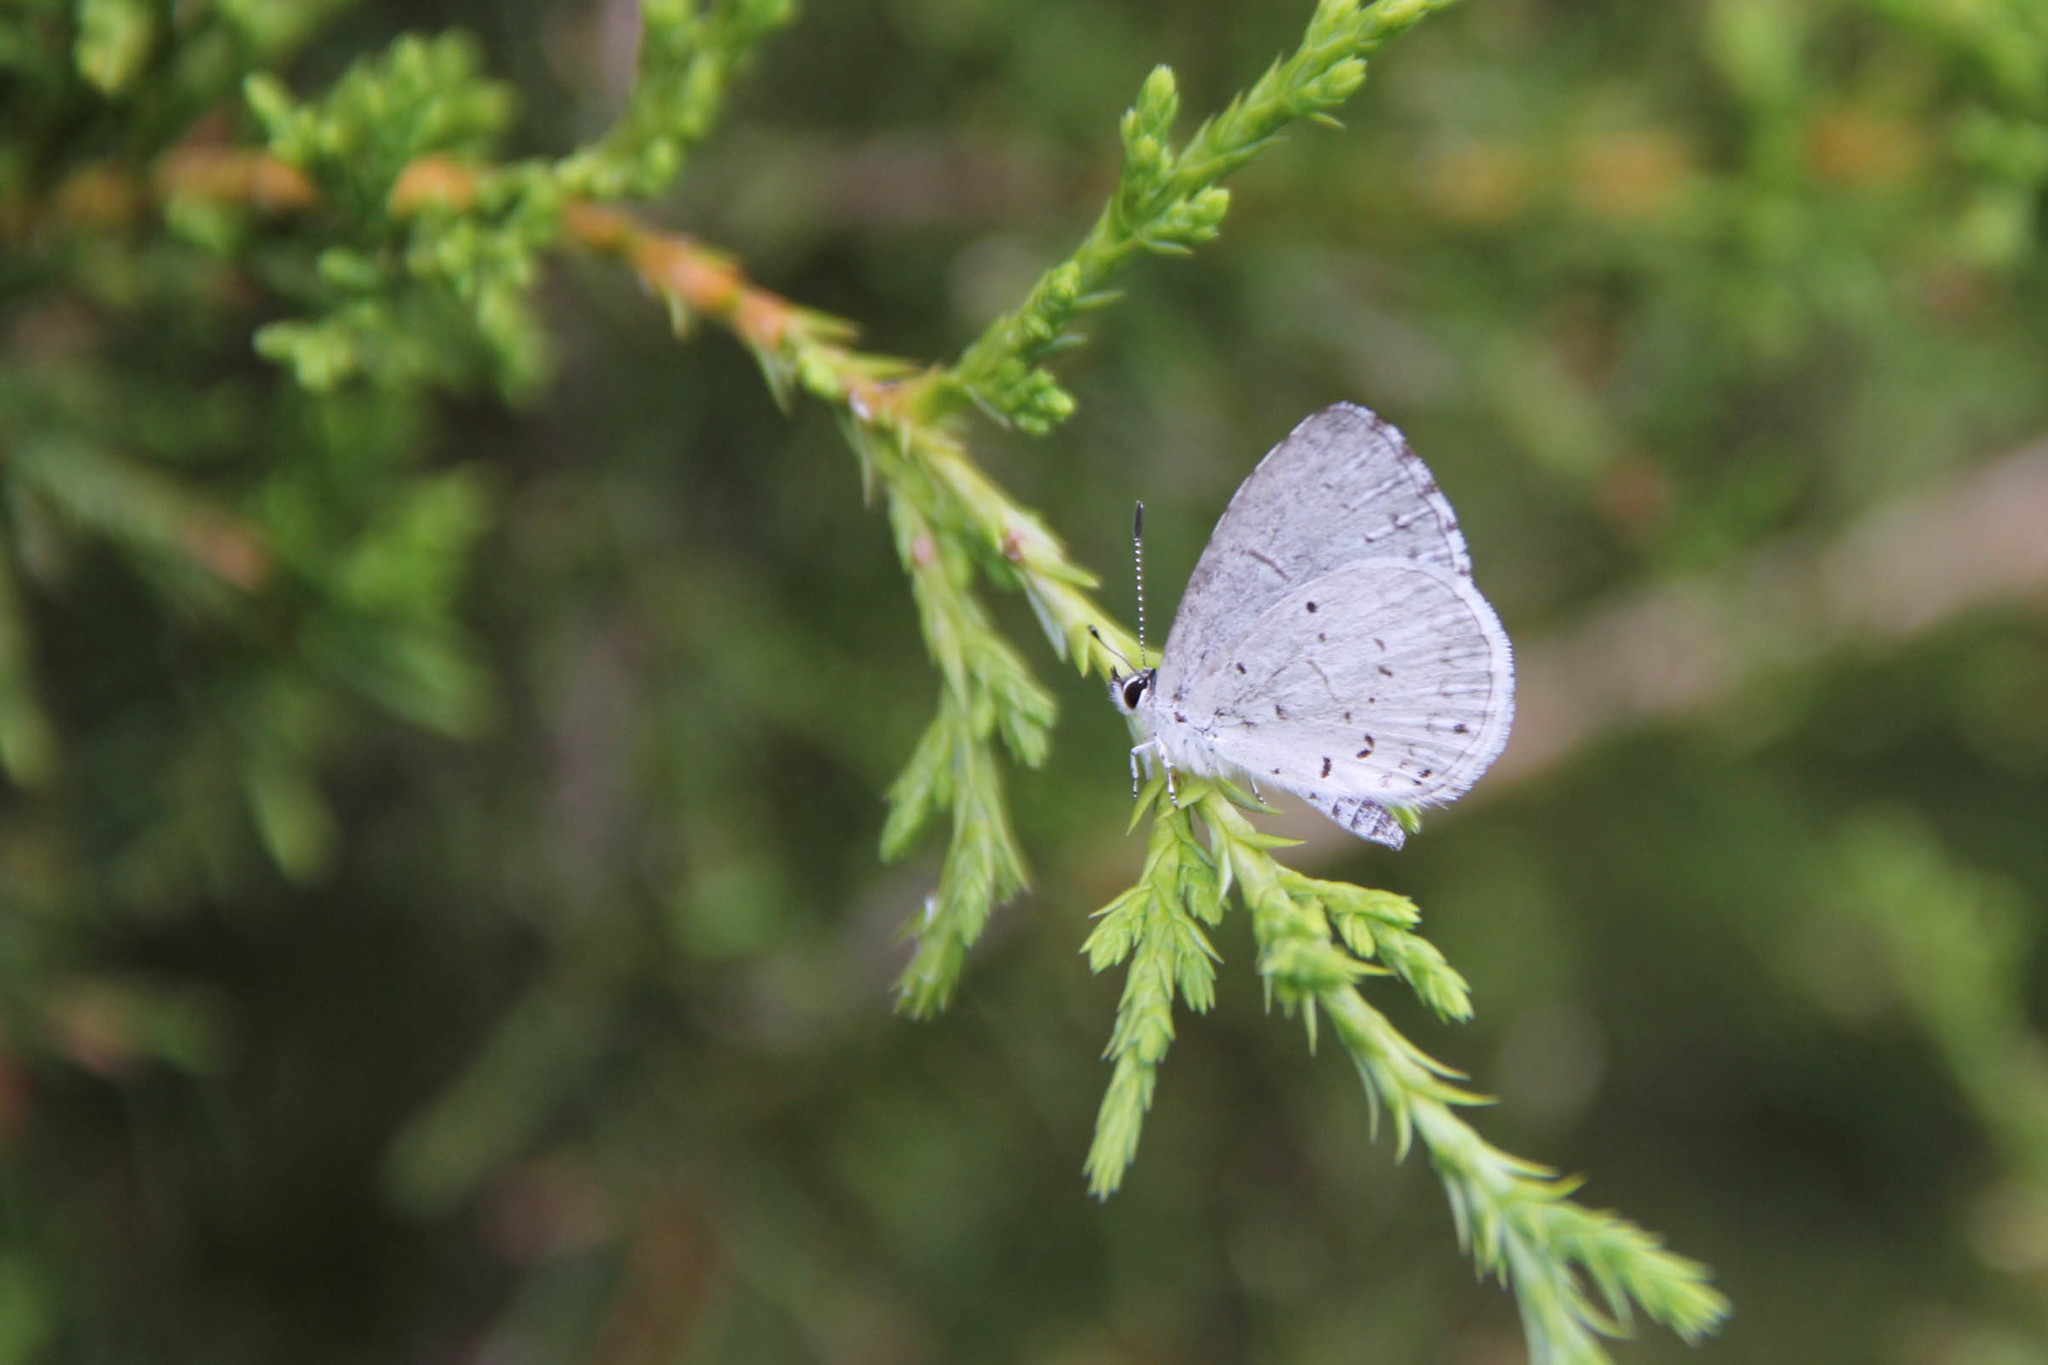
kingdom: Animalia
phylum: Arthropoda
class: Insecta
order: Lepidoptera
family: Lycaenidae
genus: Cyaniris
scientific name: Cyaniris neglecta
